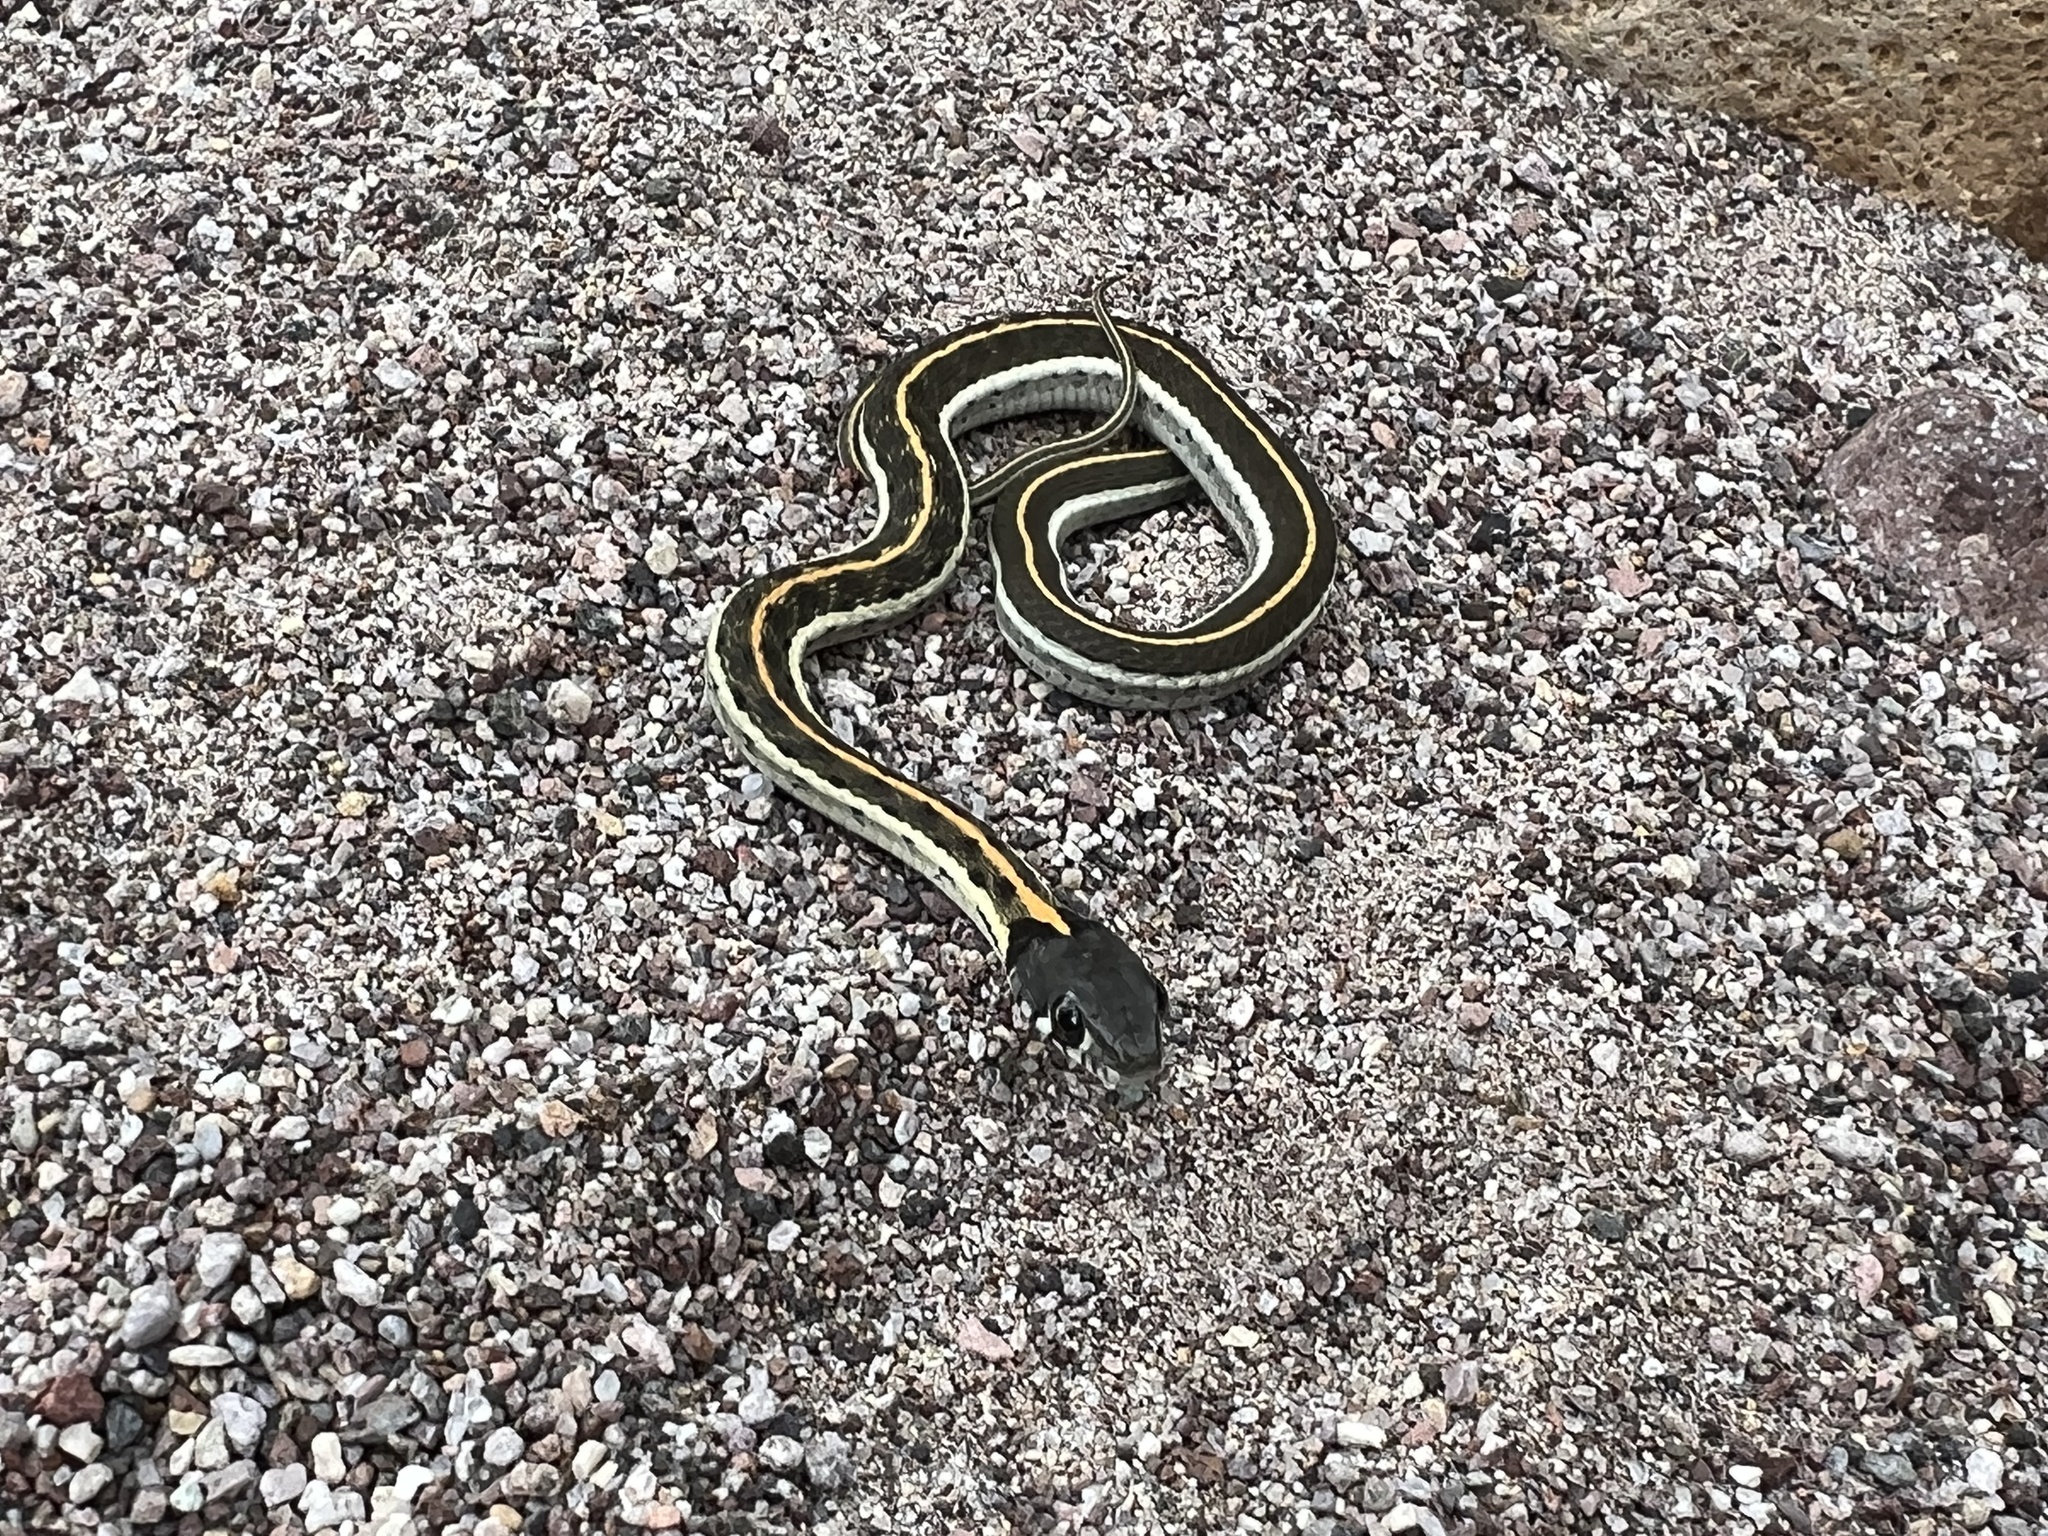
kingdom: Animalia
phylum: Chordata
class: Squamata
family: Colubridae
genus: Thamnophis
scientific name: Thamnophis cyrtopsis
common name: Black-necked gartersnake
